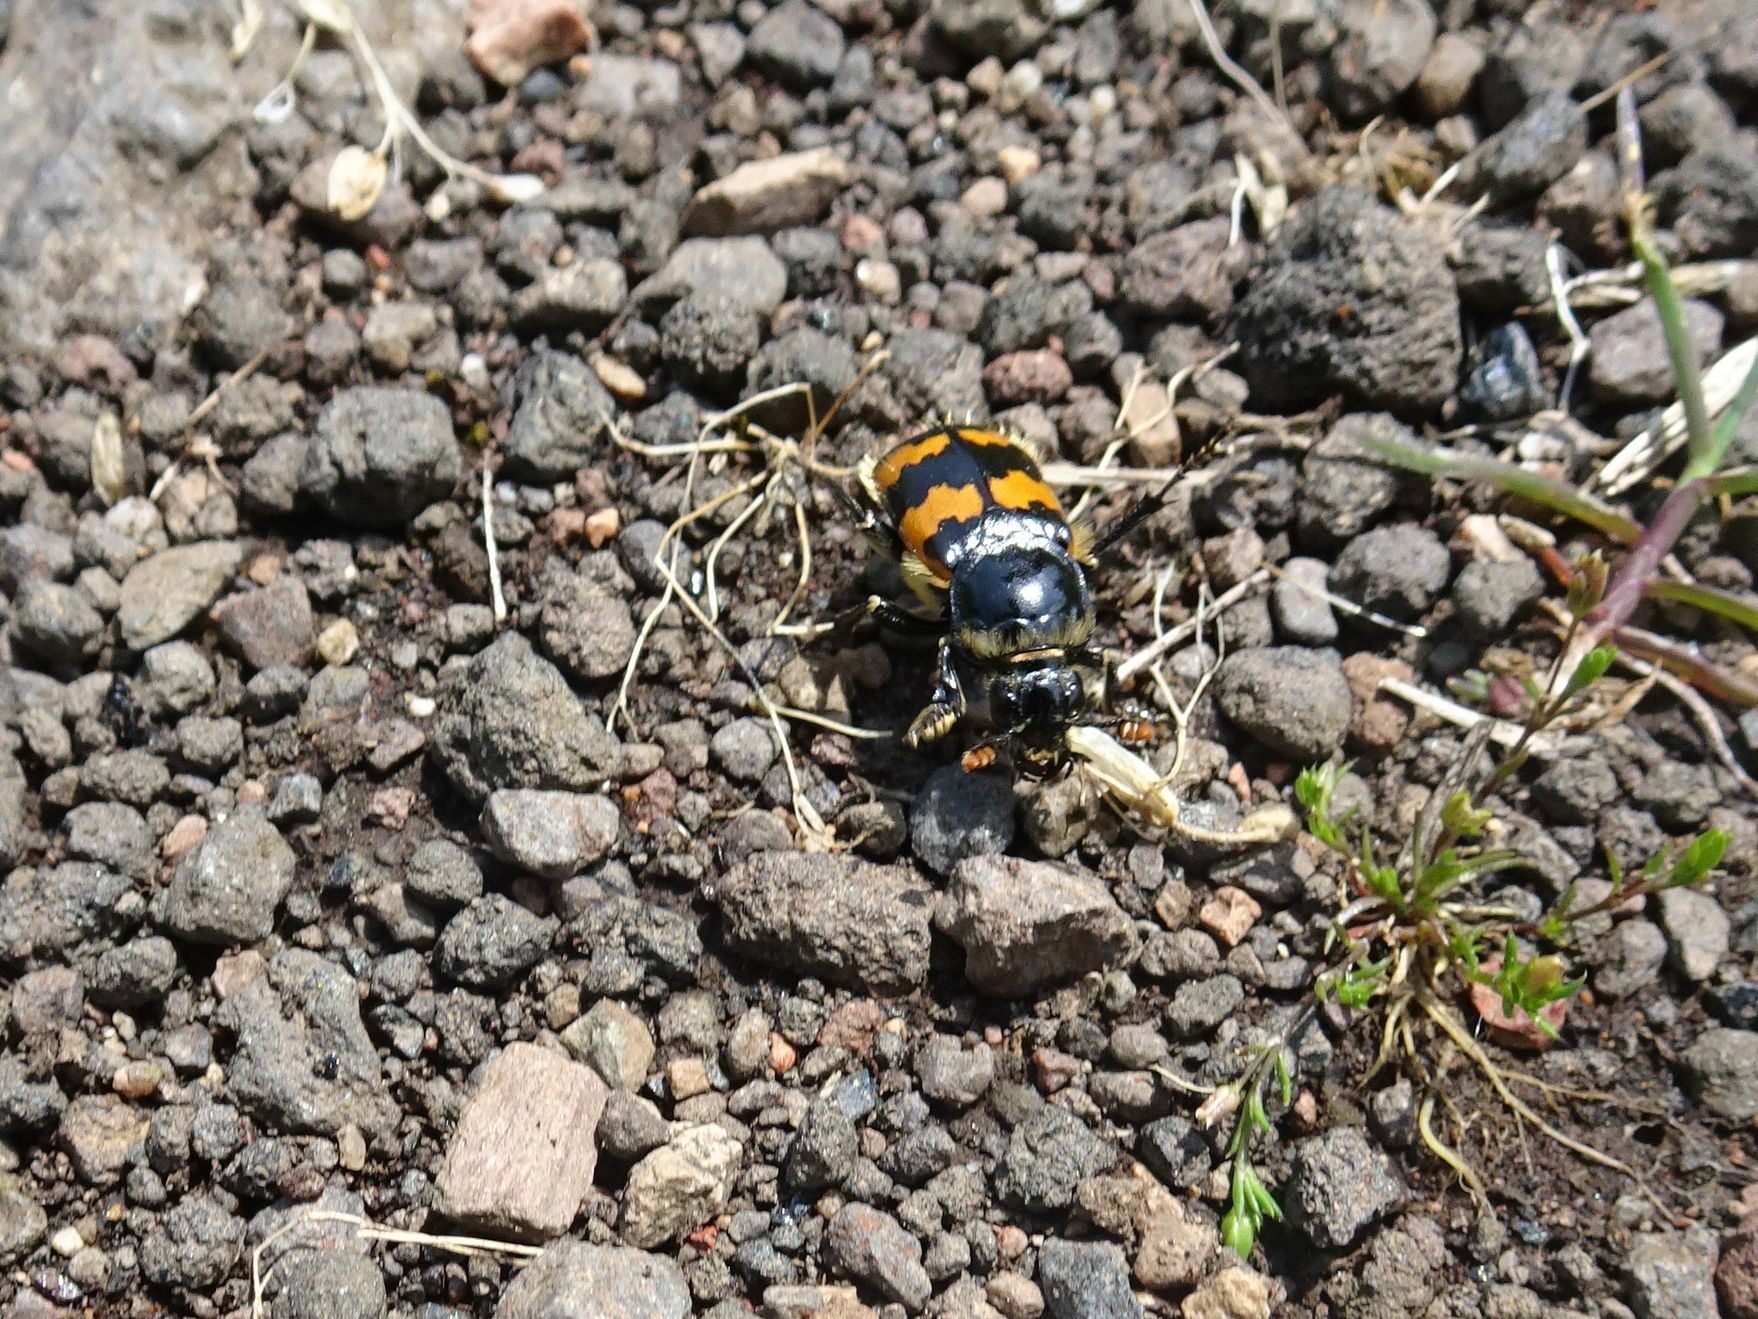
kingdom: Animalia
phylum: Arthropoda
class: Insecta
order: Coleoptera
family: Staphylinidae
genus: Nicrophorus
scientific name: Nicrophorus vespillo
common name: Common burying beetle
